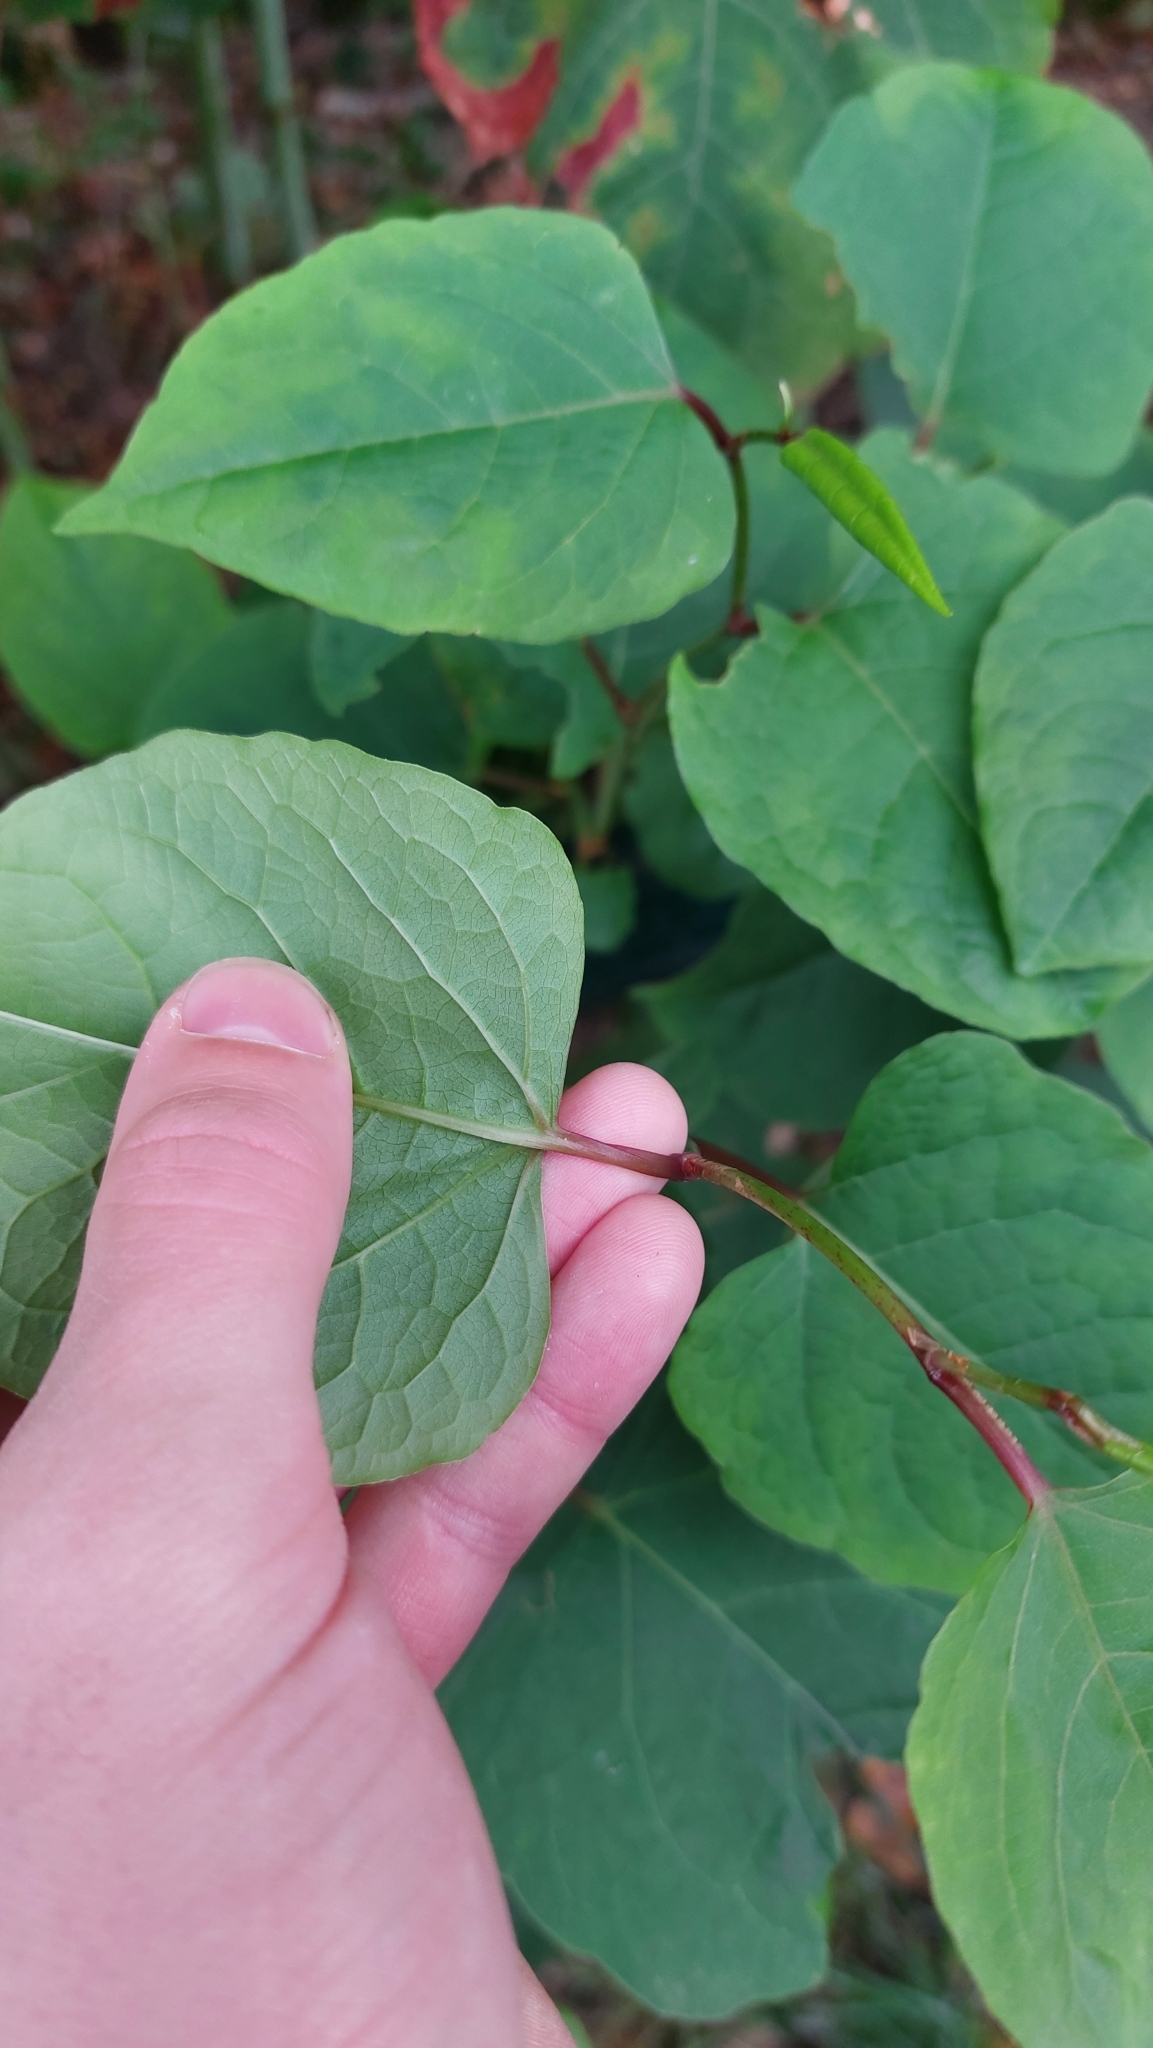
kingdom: Plantae
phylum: Tracheophyta
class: Magnoliopsida
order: Caryophyllales
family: Polygonaceae
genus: Reynoutria
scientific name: Reynoutria bohemica
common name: Bohemian knotweed
